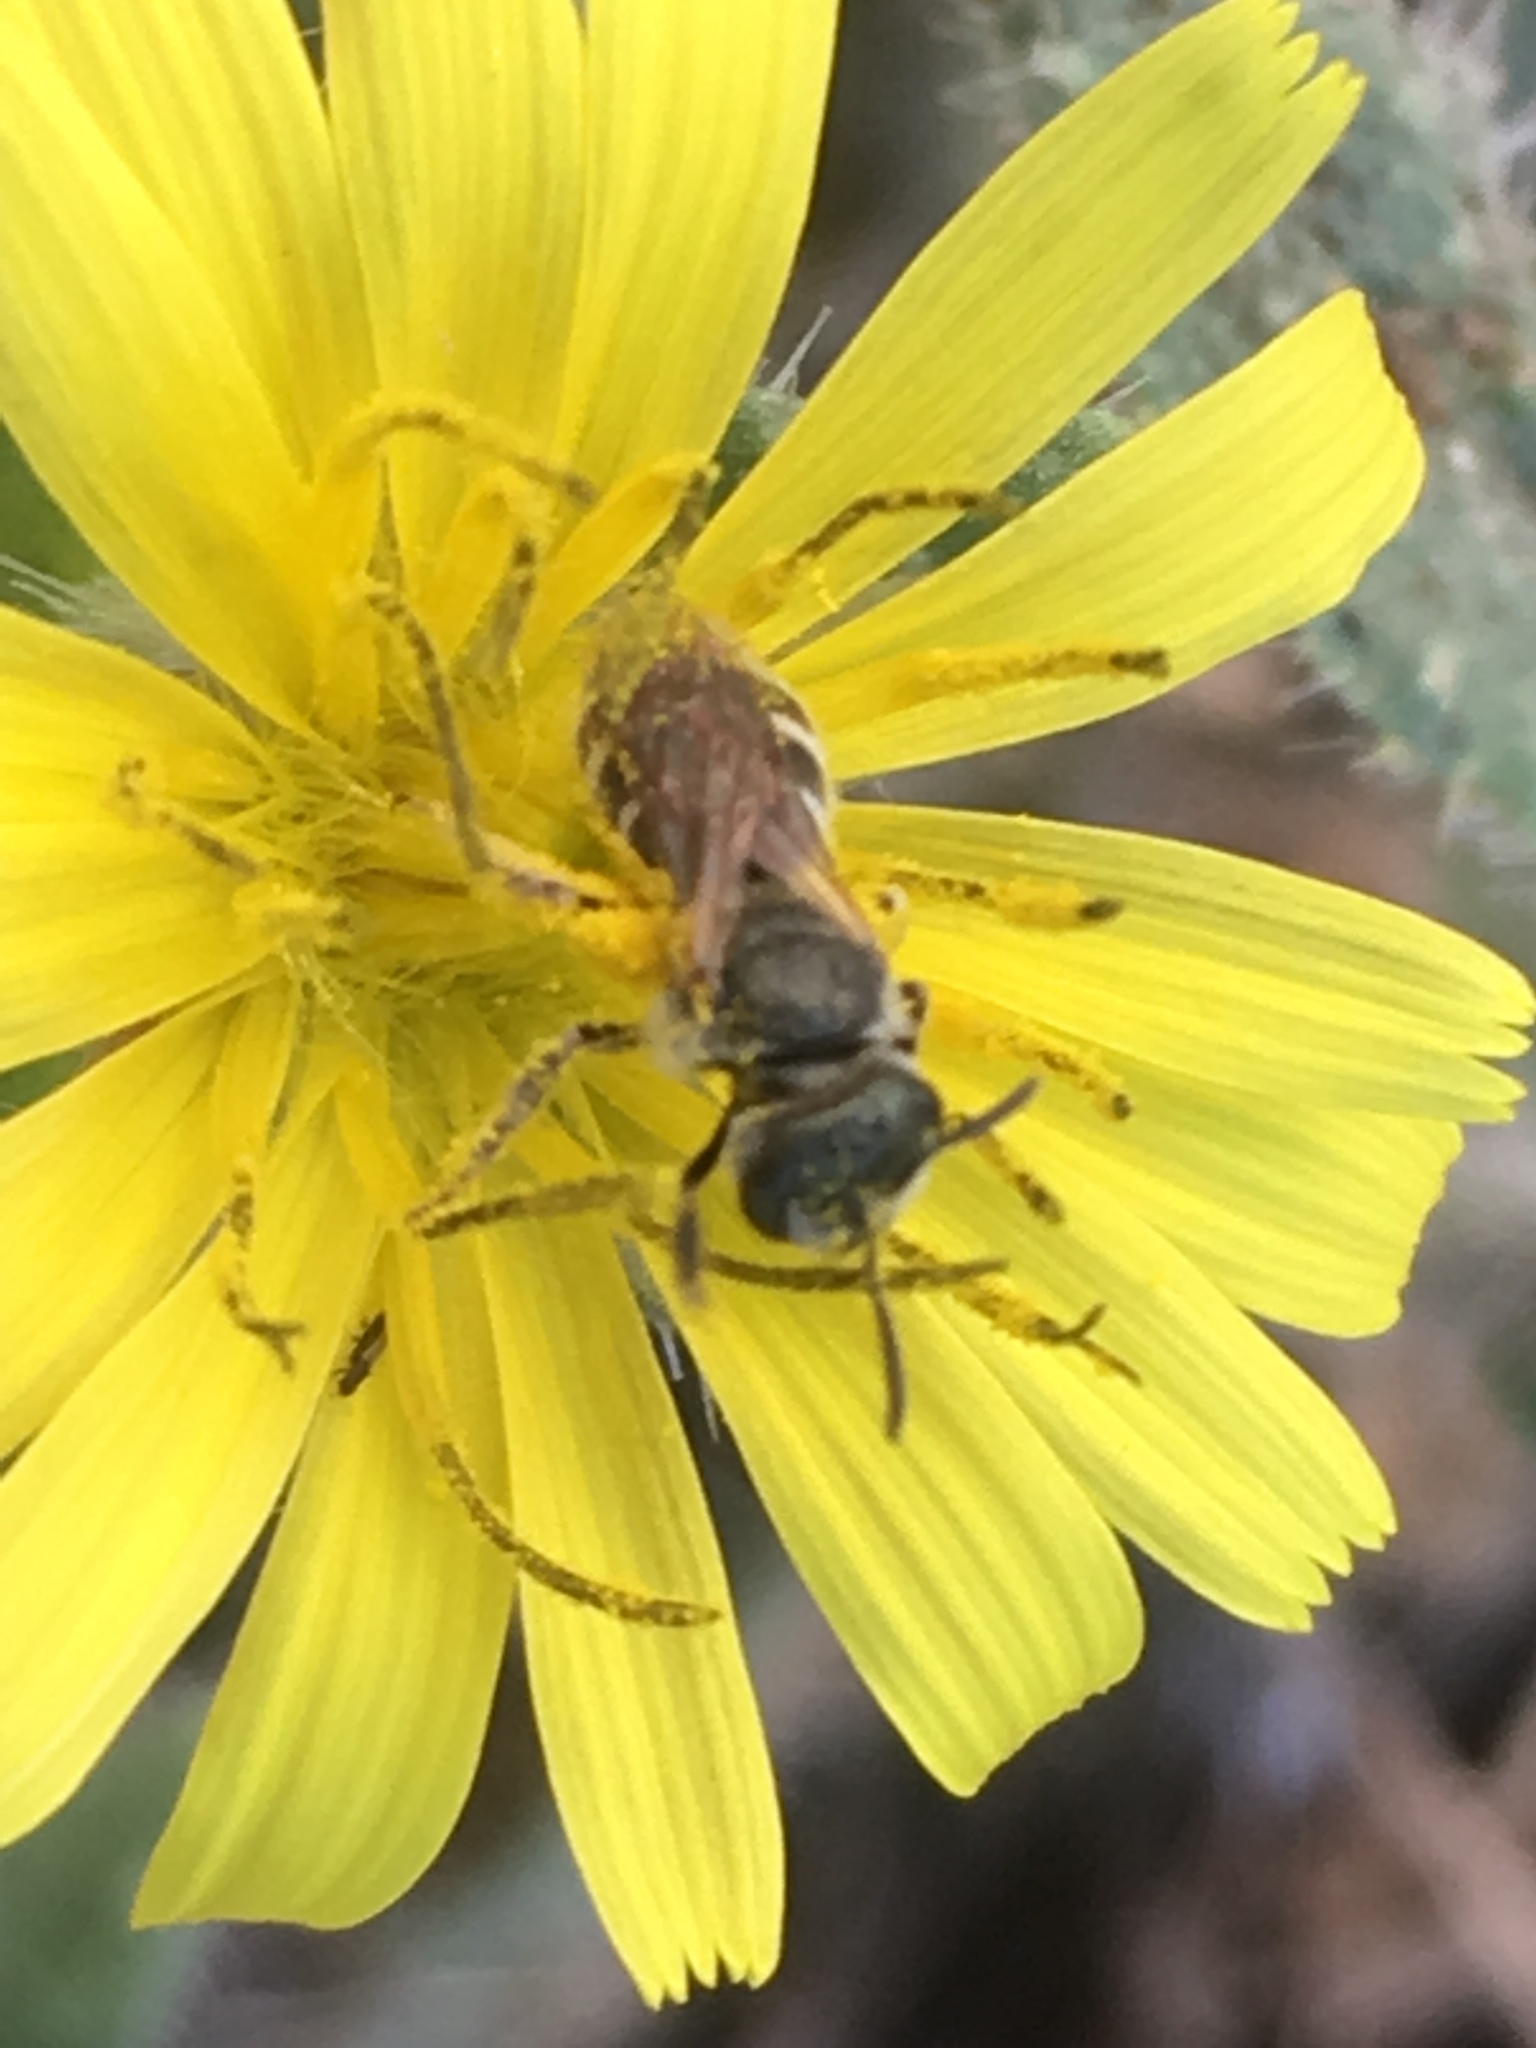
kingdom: Animalia
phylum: Arthropoda
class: Insecta
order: Hymenoptera
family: Halictidae
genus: Halictus
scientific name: Halictus tripartitus
